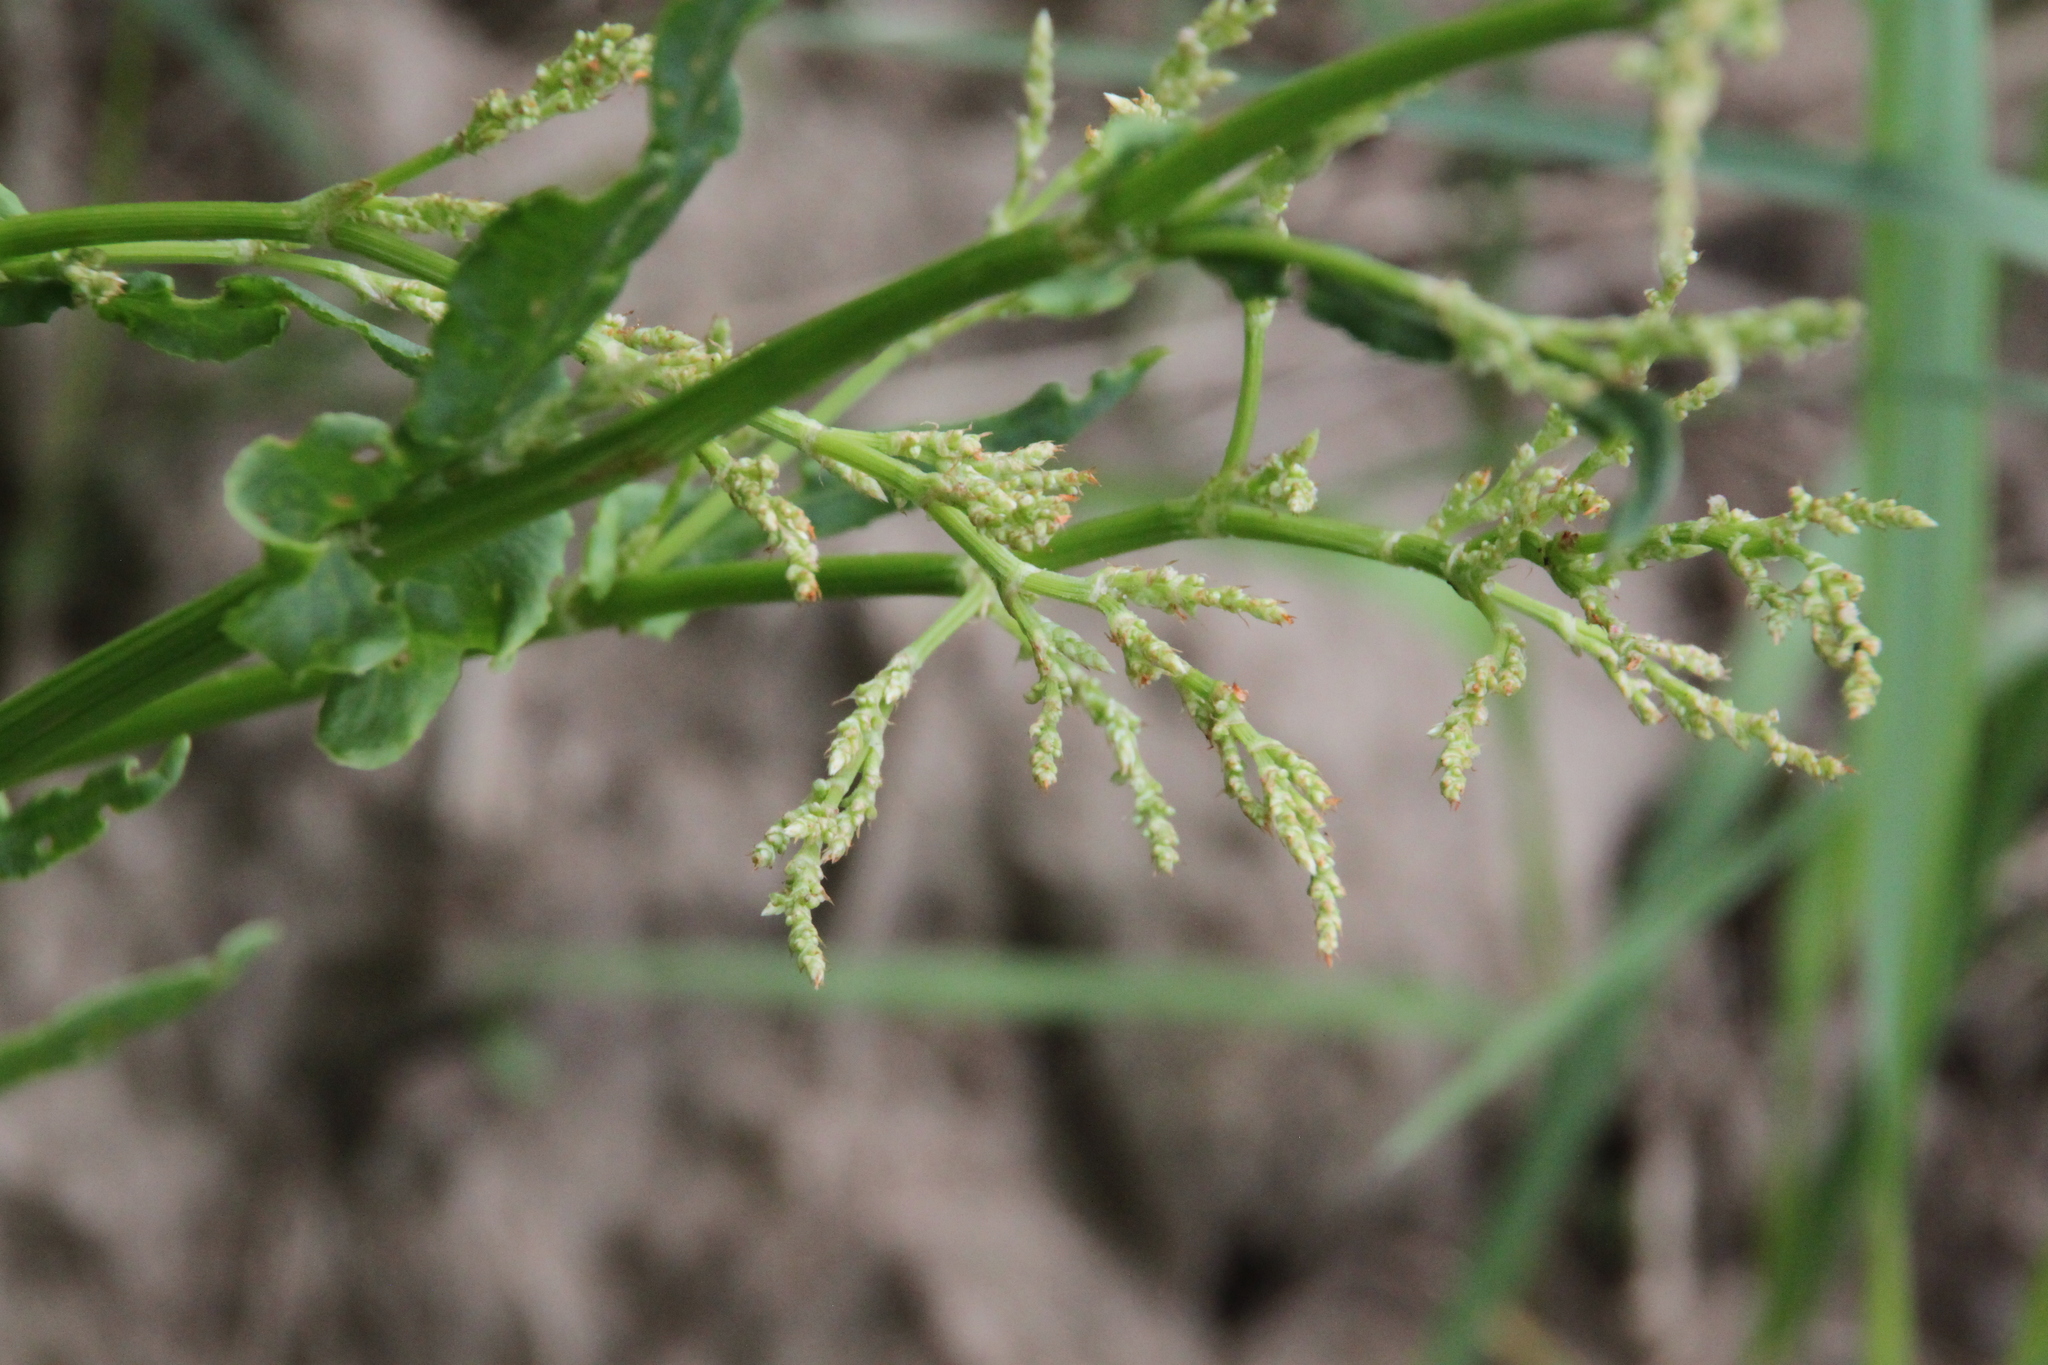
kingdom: Plantae
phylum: Tracheophyta
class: Magnoliopsida
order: Caryophyllales
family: Polygonaceae
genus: Rumex
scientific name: Rumex thyrsiflorus
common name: Garden sorrel
